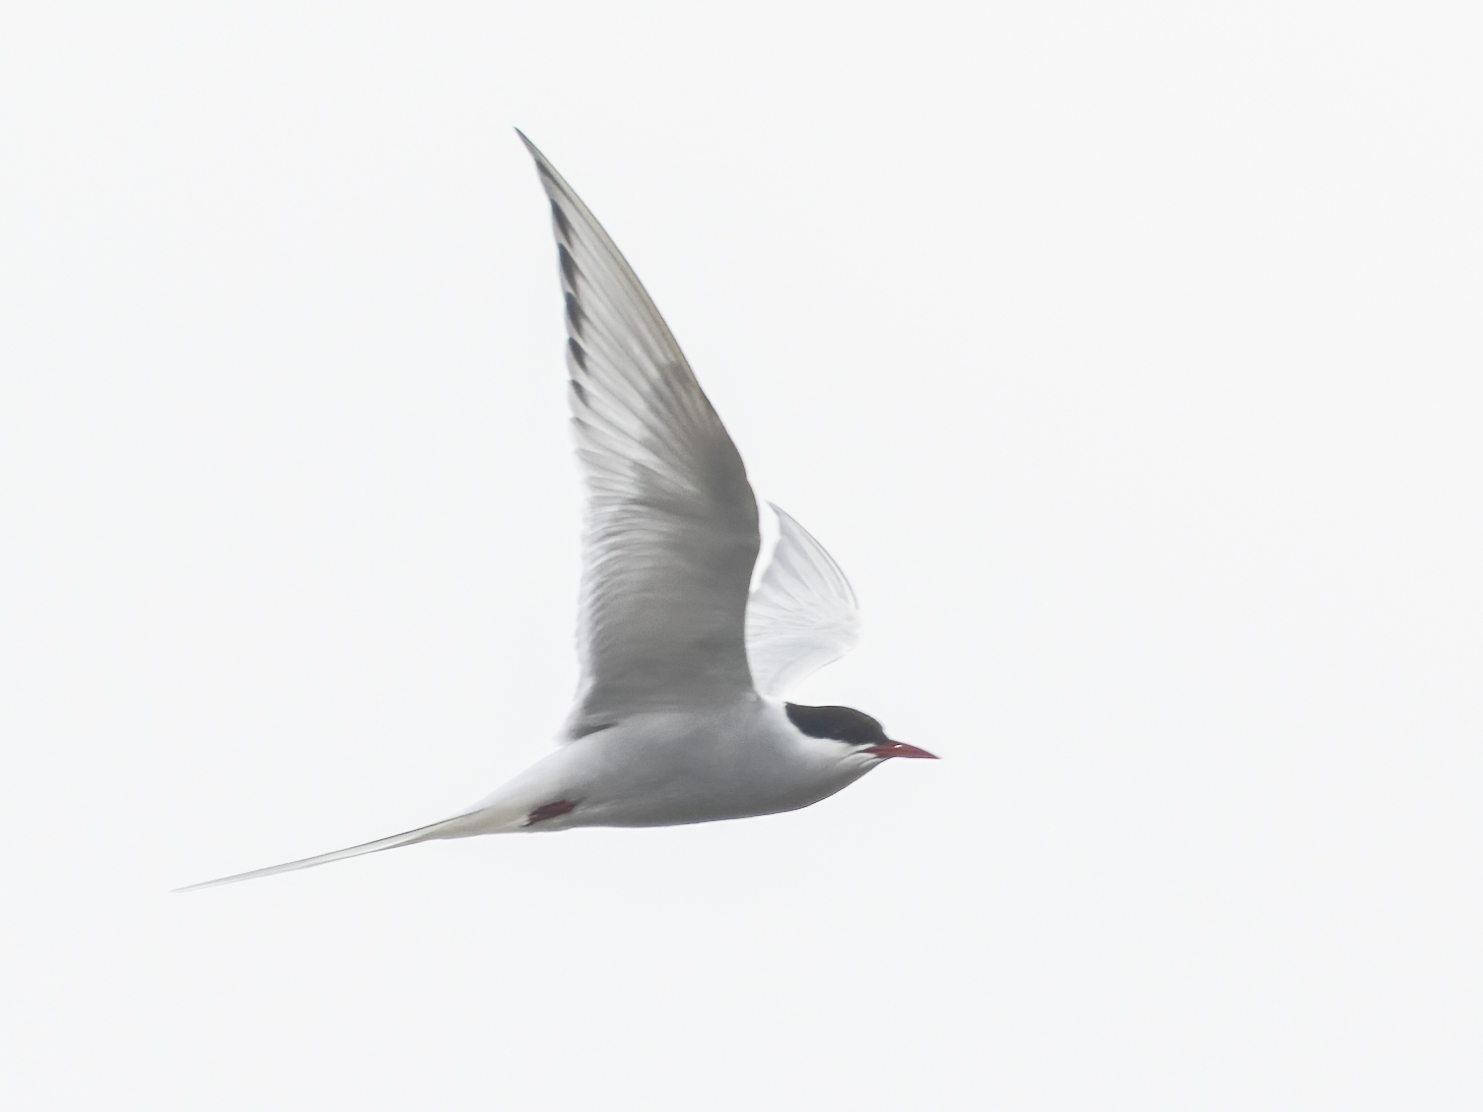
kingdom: Animalia
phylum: Chordata
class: Aves
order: Charadriiformes
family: Laridae
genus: Sterna
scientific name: Sterna paradisaea
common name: Arctic tern
